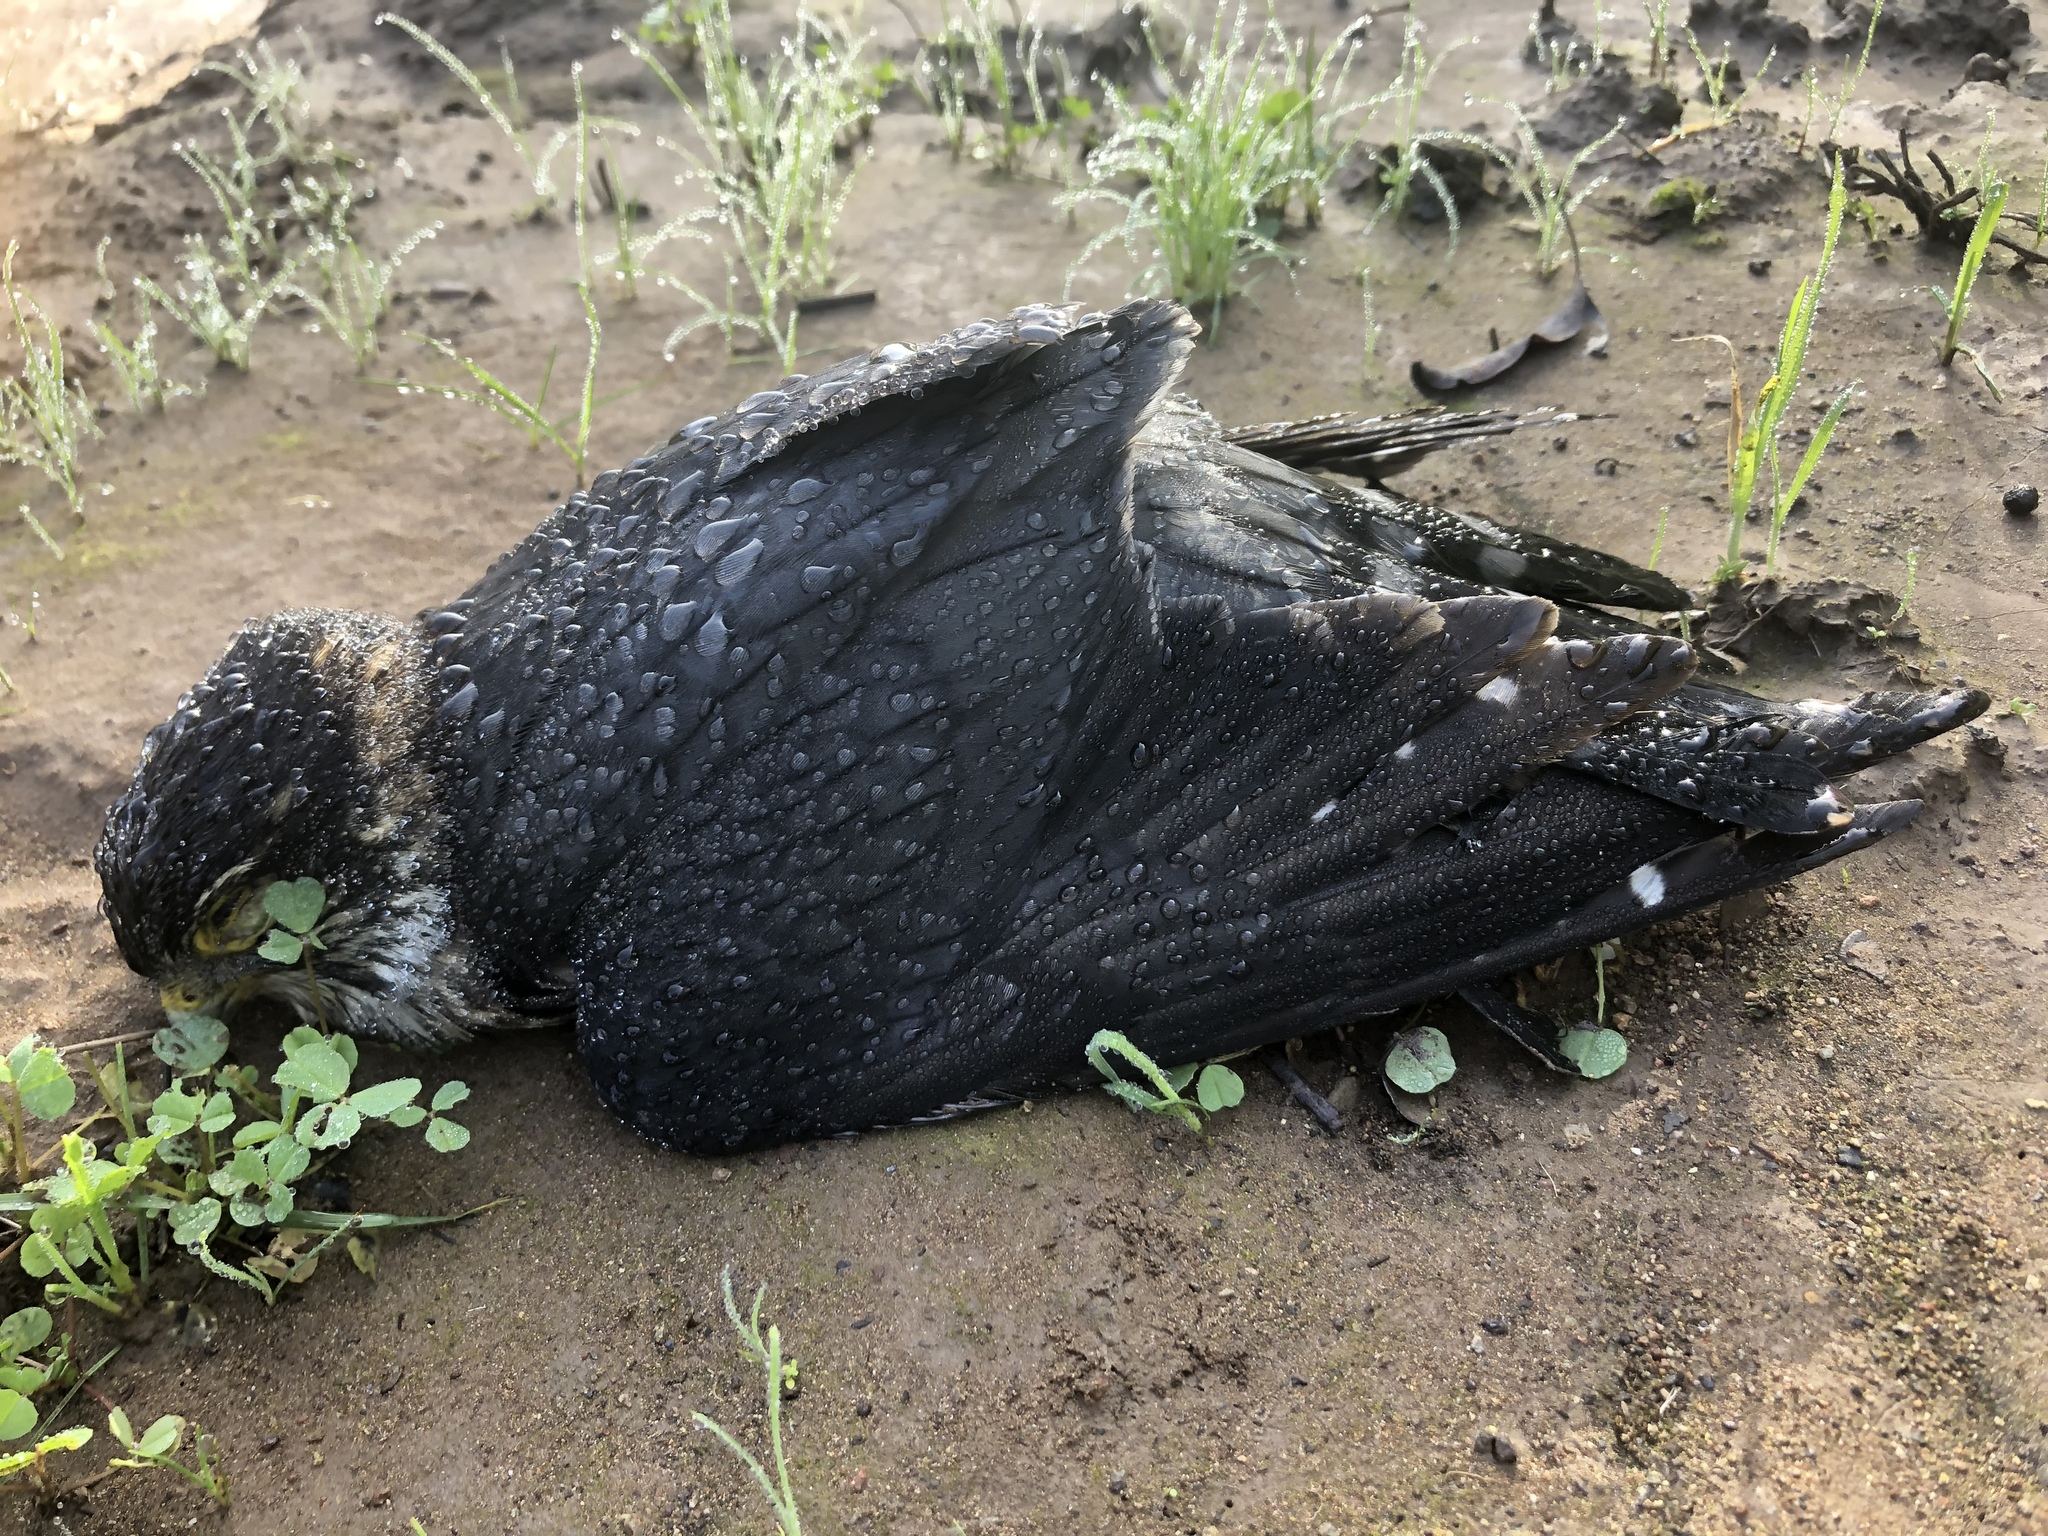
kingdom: Animalia
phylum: Chordata
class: Aves
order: Falconiformes
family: Falconidae
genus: Falco
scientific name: Falco columbarius
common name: Merlin
